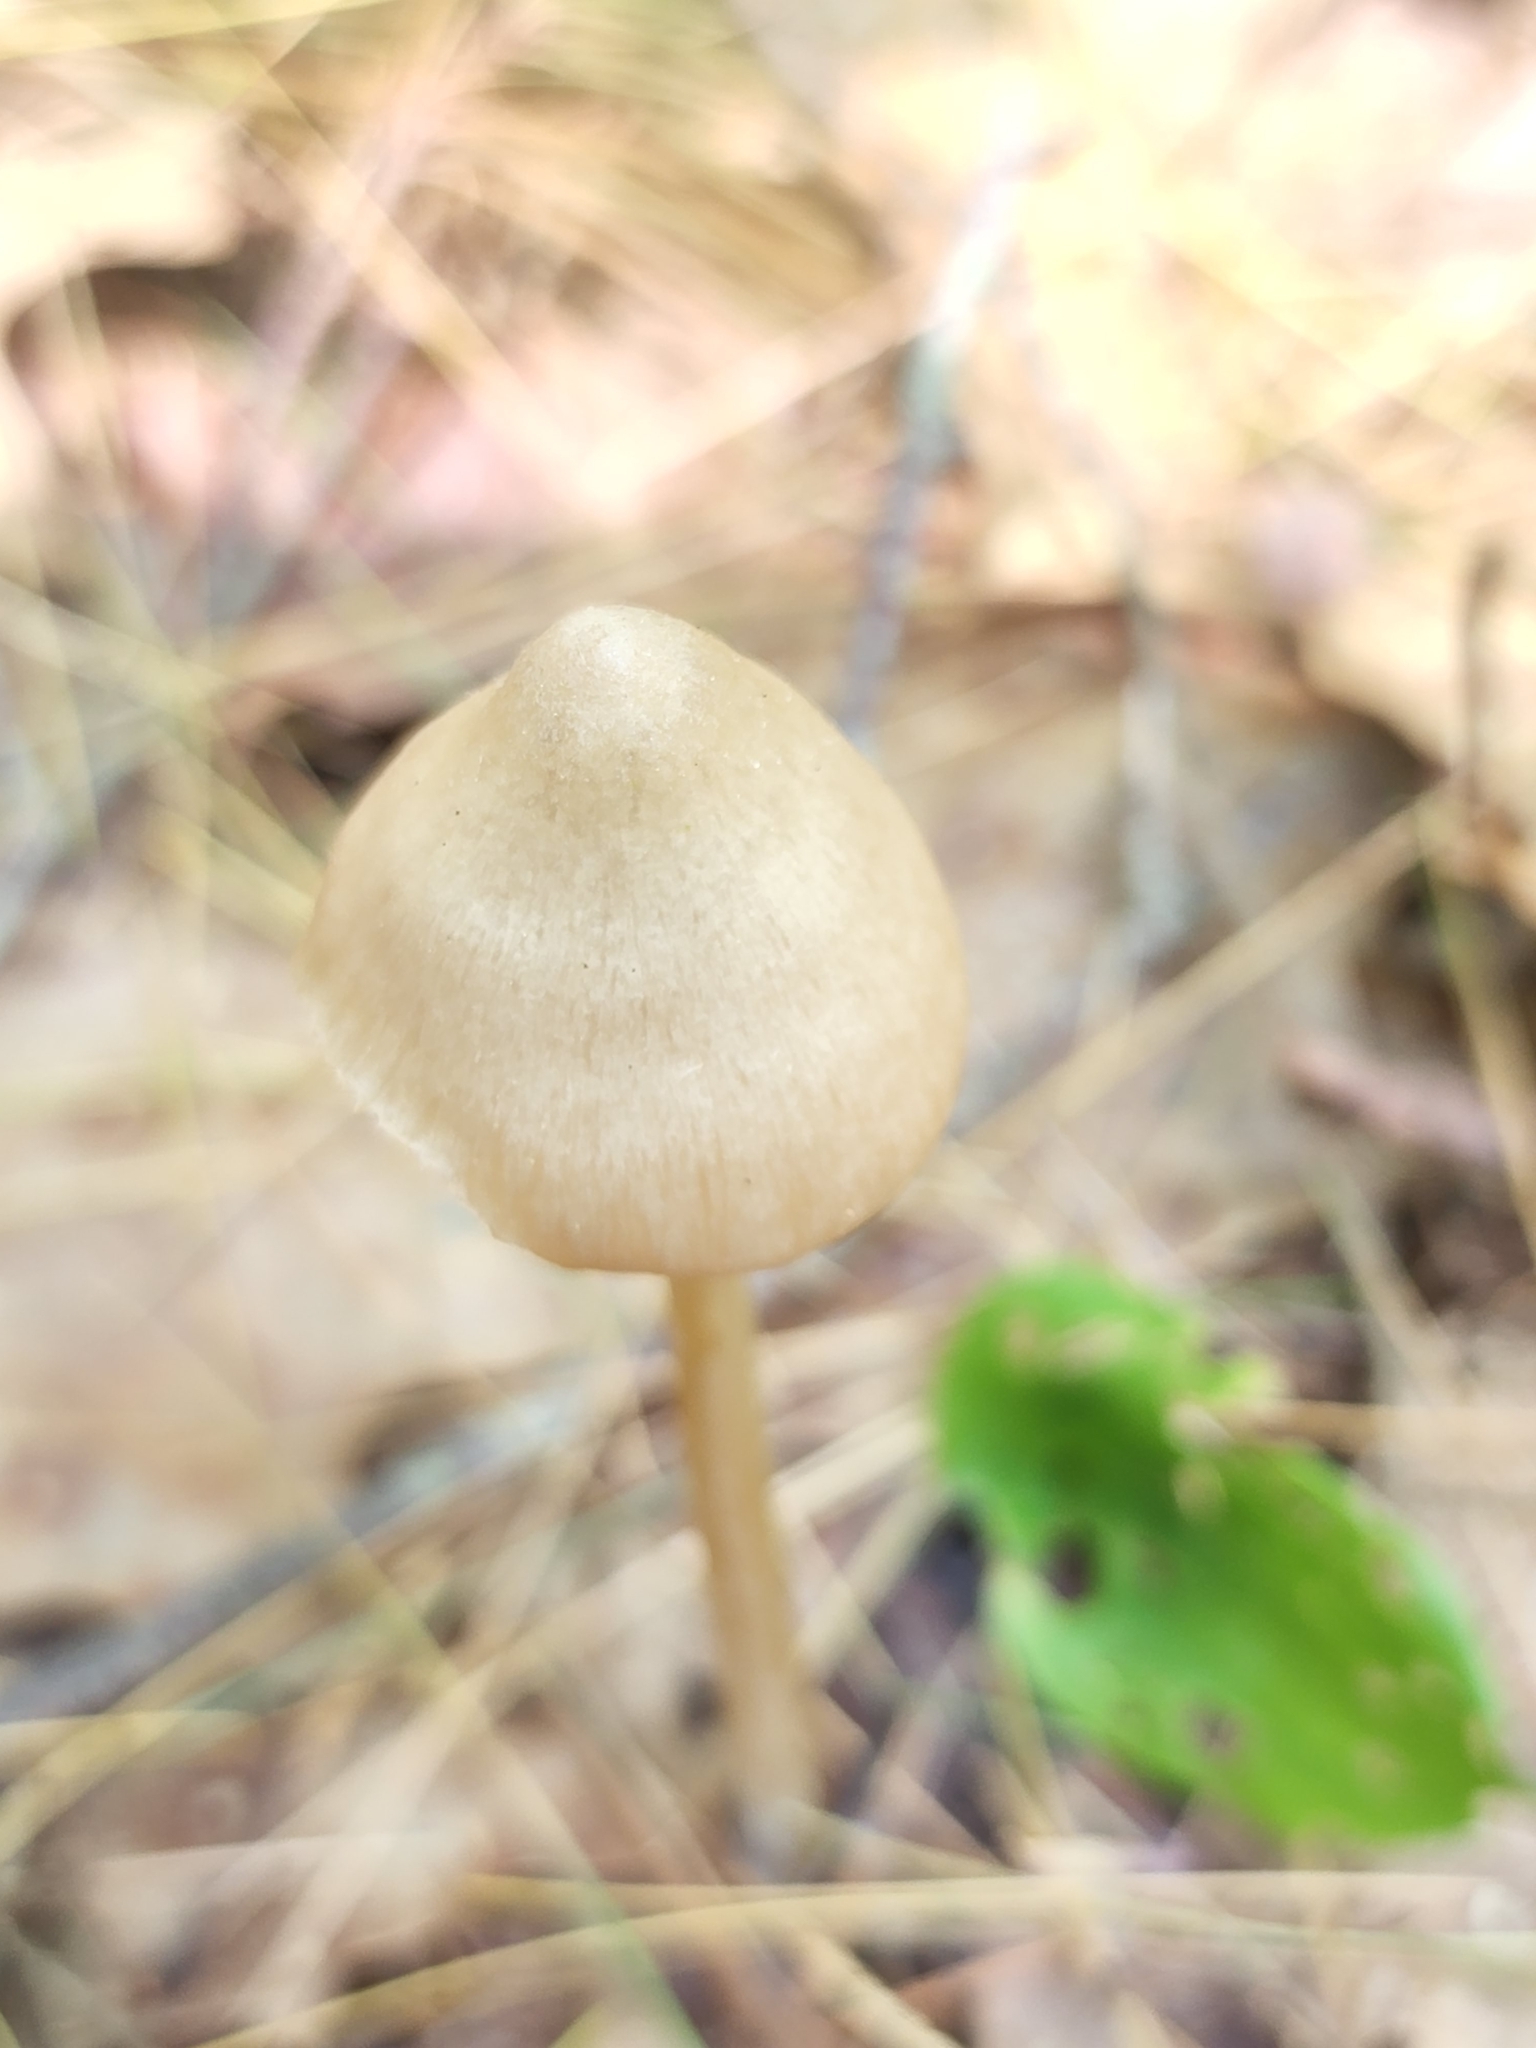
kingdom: Fungi
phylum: Basidiomycota
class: Agaricomycetes
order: Agaricales
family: Entolomataceae
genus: Entoloma
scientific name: Entoloma strictius
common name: Straight-stalked entoloma
